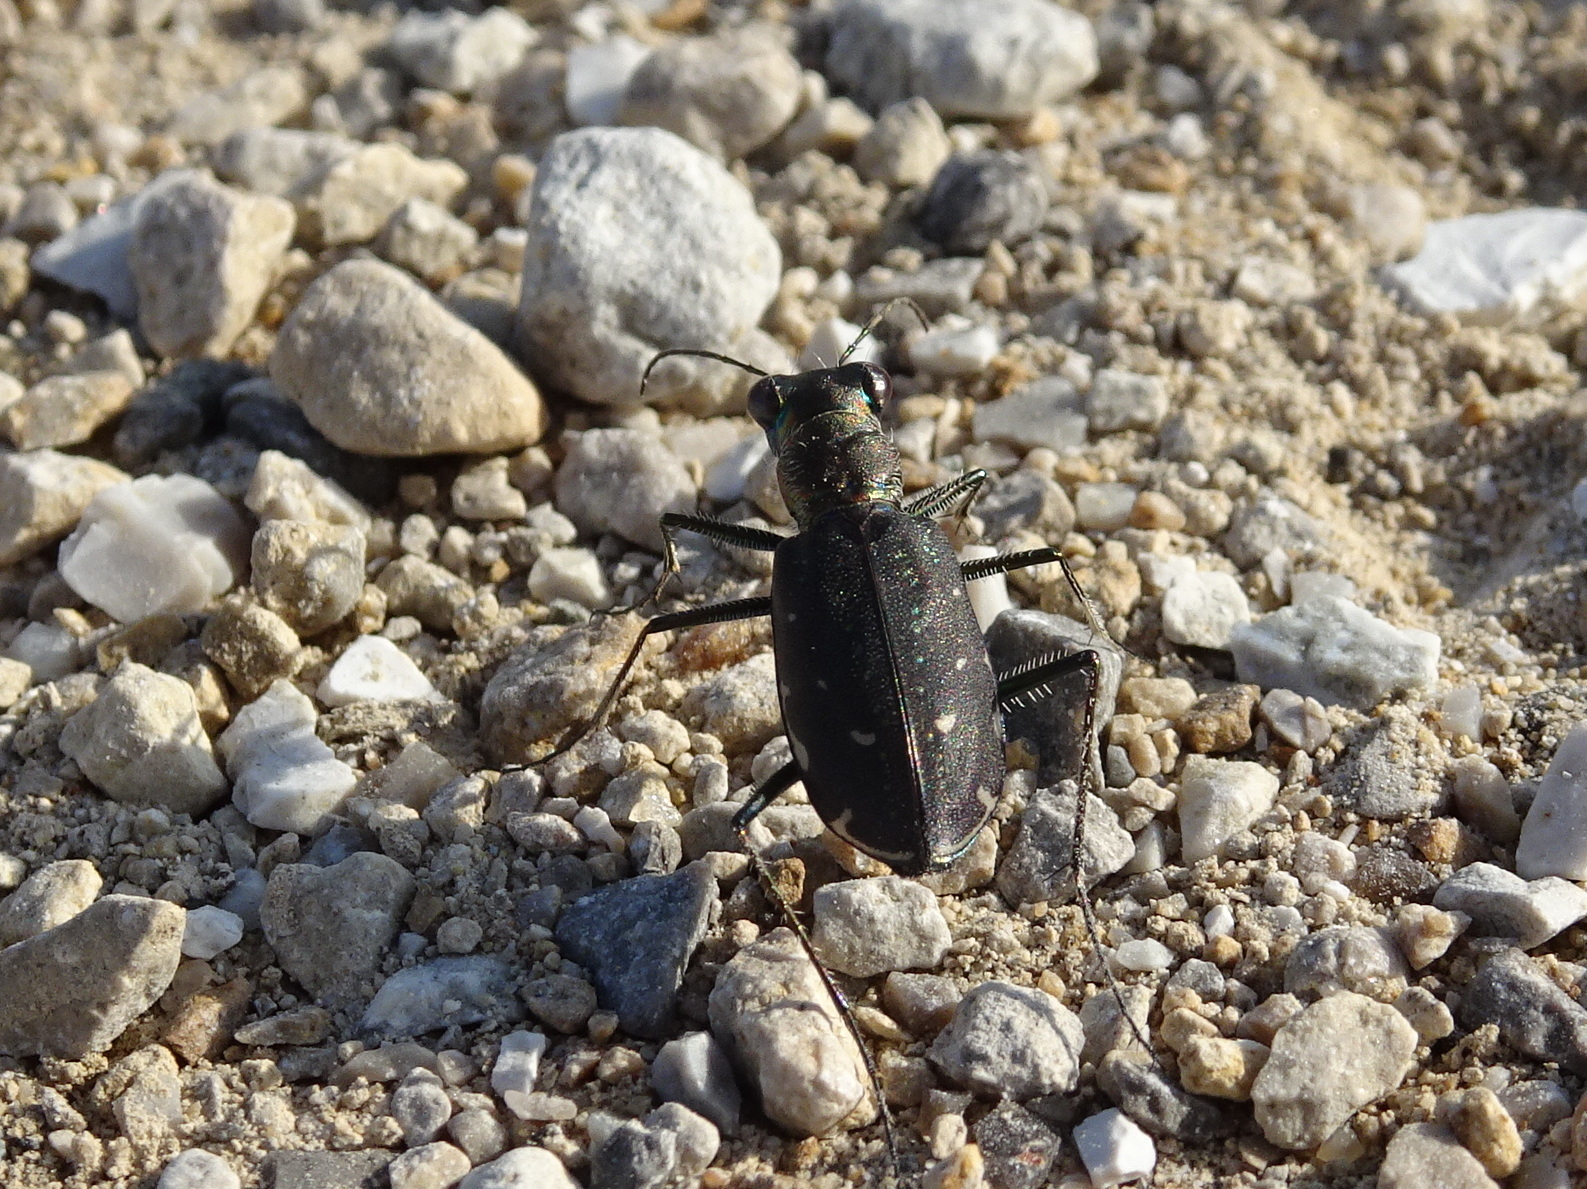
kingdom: Animalia
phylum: Arthropoda
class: Insecta
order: Coleoptera
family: Carabidae
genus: Cicindela
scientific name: Cicindela punctulata
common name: Punctured tiger beetle
